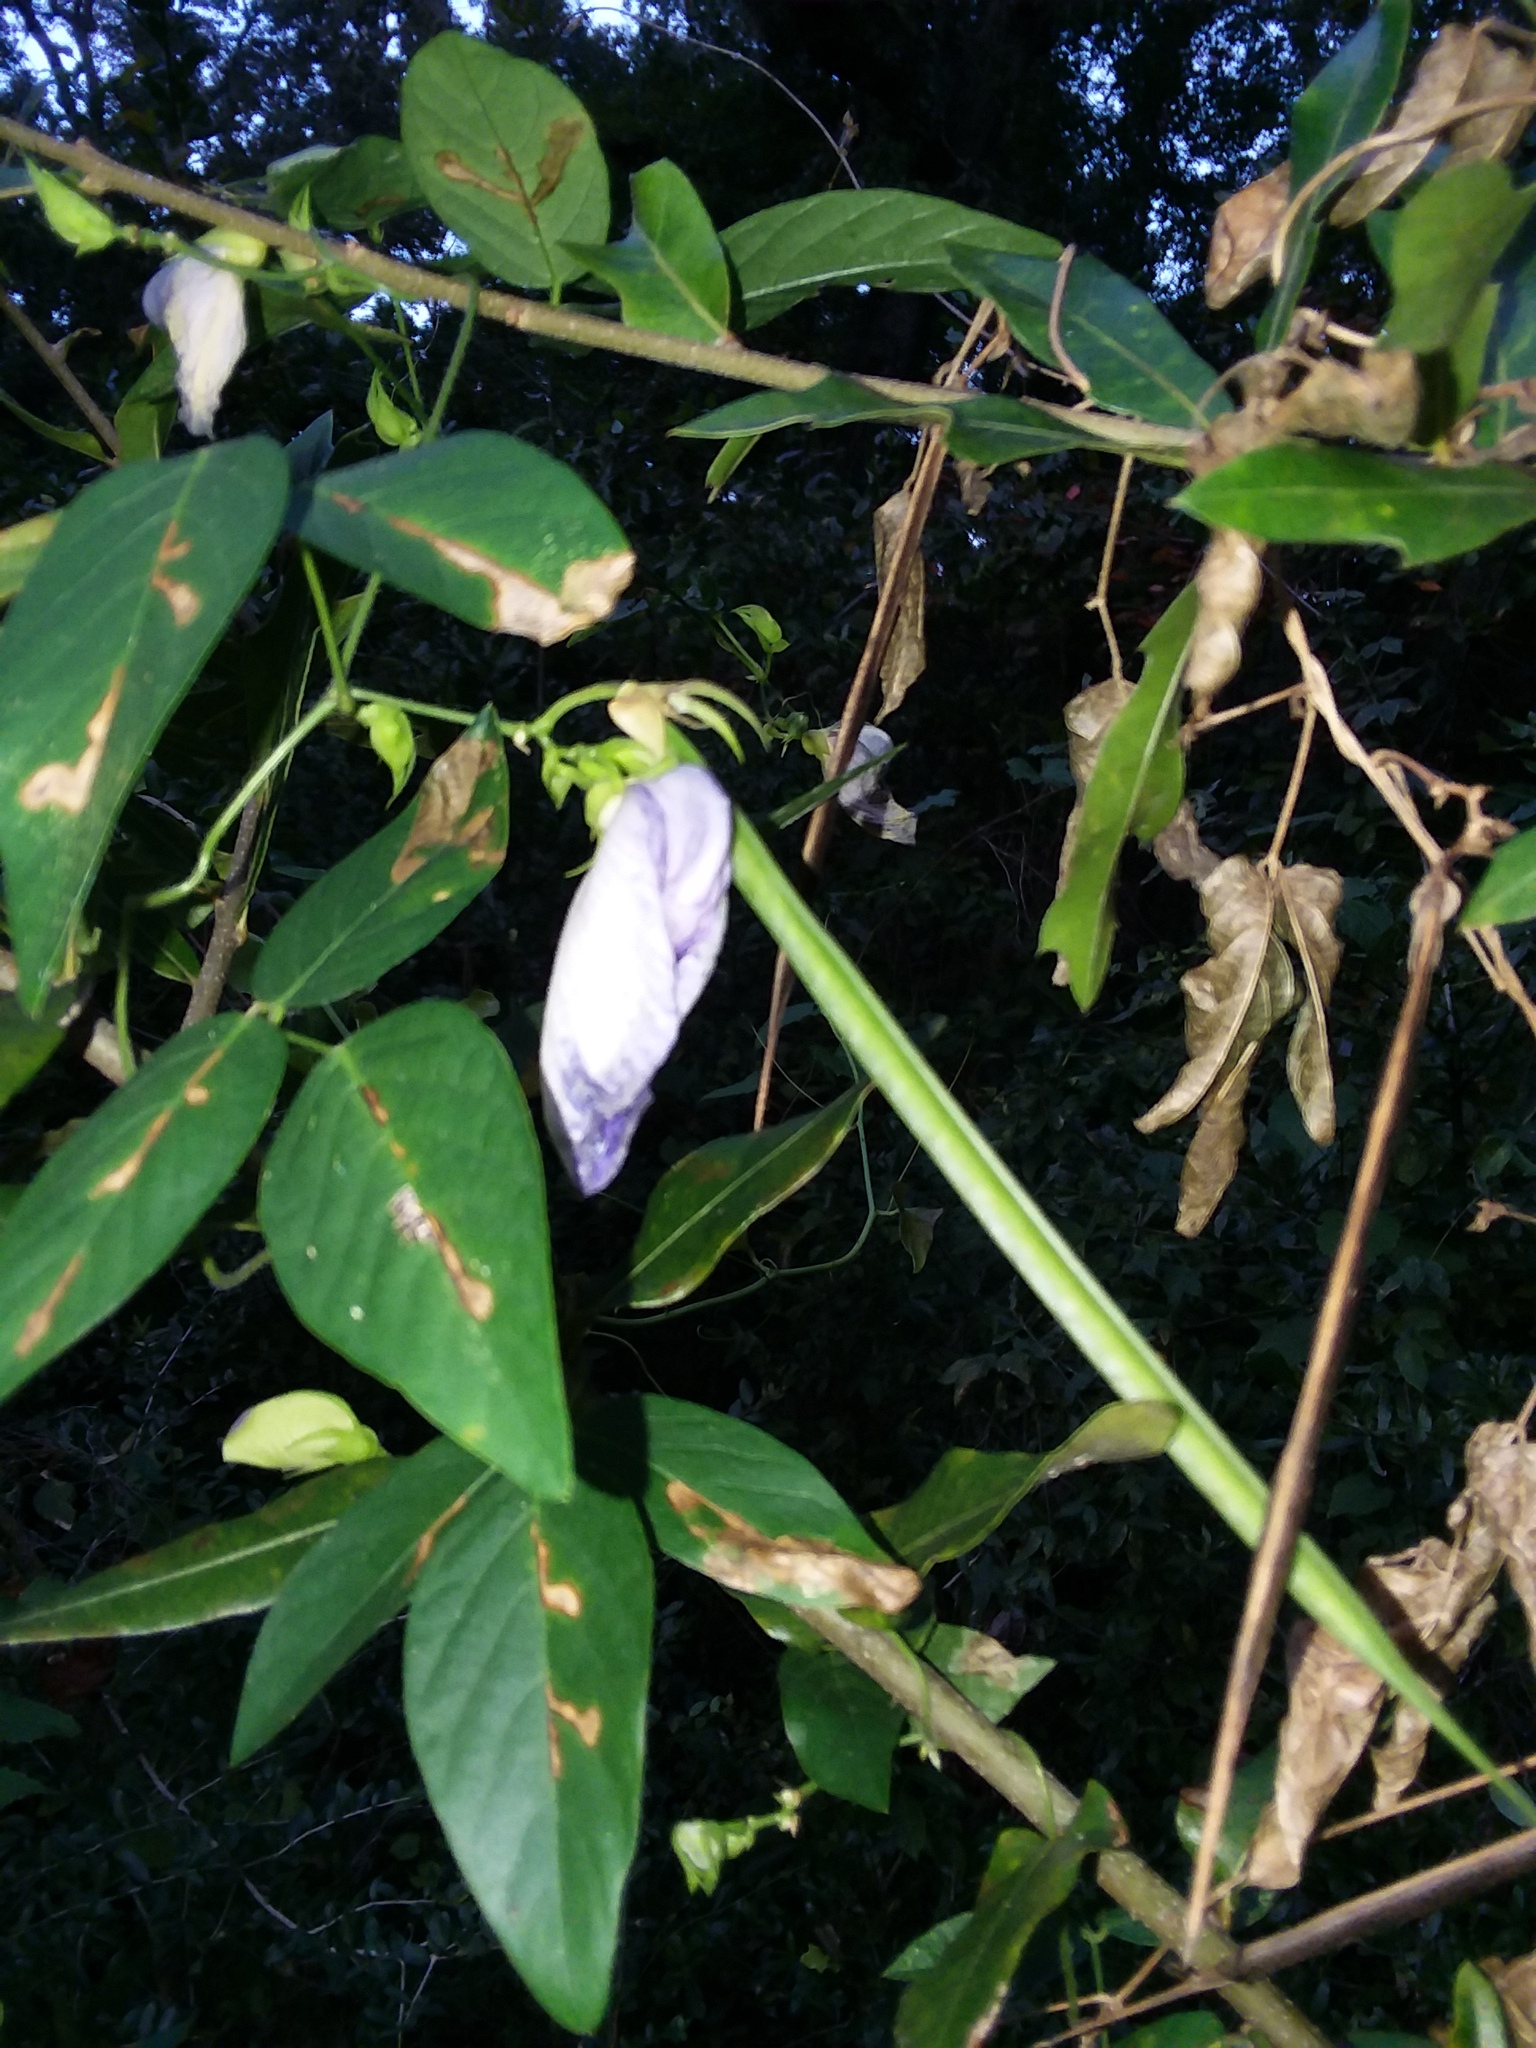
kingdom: Plantae
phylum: Tracheophyta
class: Magnoliopsida
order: Fabales
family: Fabaceae
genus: Centrosema
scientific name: Centrosema virginianum
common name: Butterfly-pea
